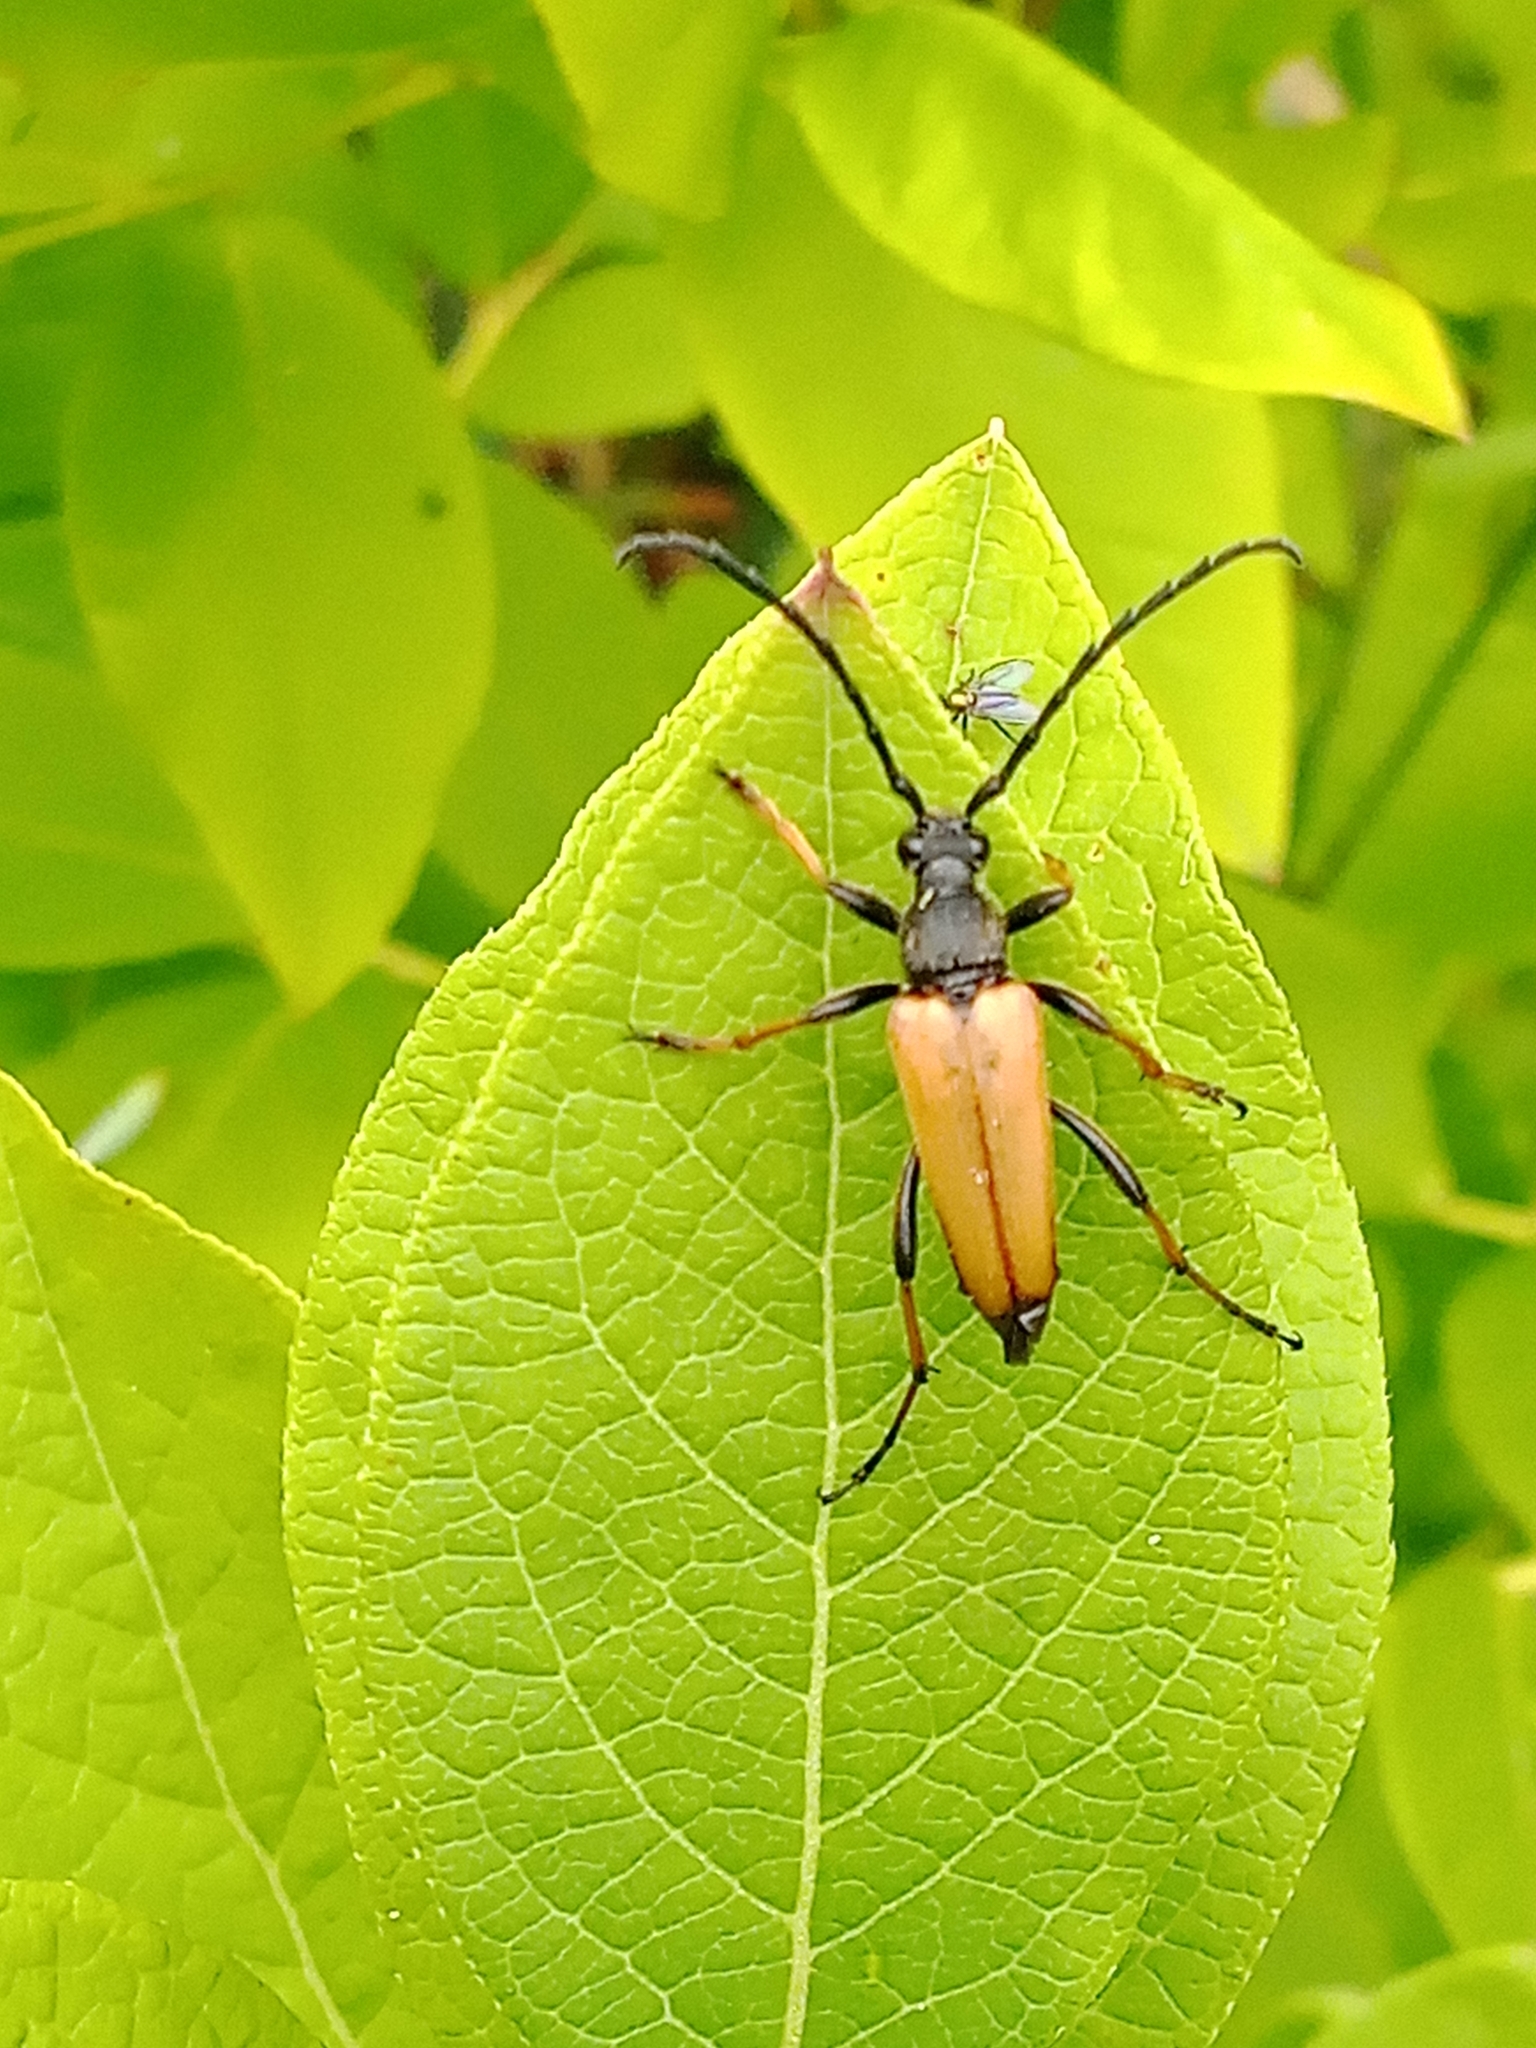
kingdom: Animalia
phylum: Arthropoda
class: Insecta
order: Coleoptera
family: Cerambycidae
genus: Stictoleptura
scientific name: Stictoleptura rubra
